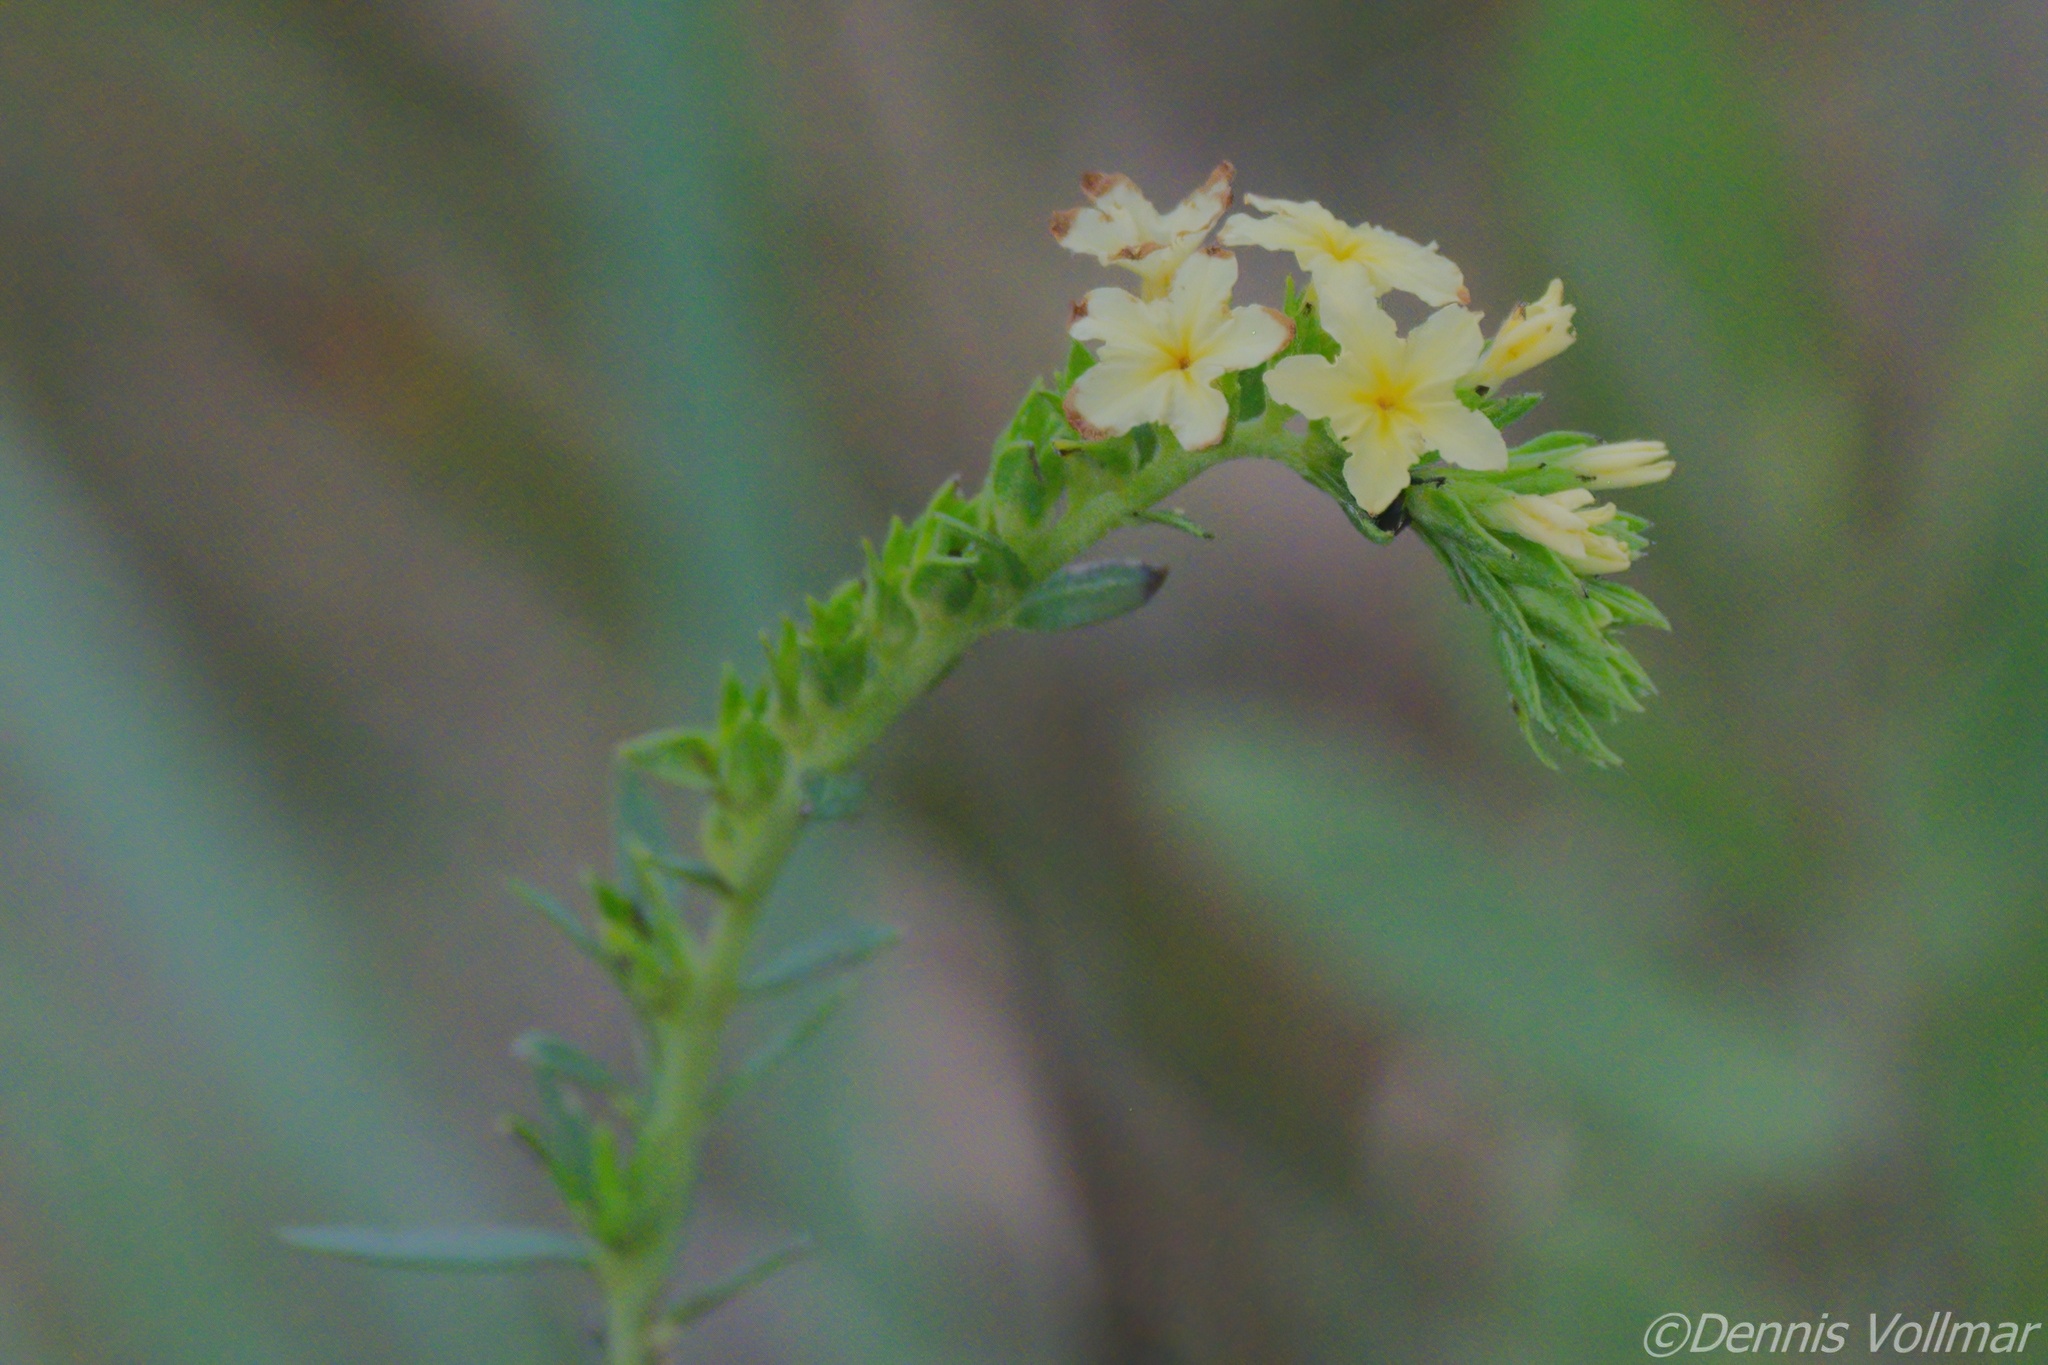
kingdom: Plantae
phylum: Tracheophyta
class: Magnoliopsida
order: Boraginales
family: Heliotropiaceae
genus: Euploca
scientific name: Euploca polyphylla
